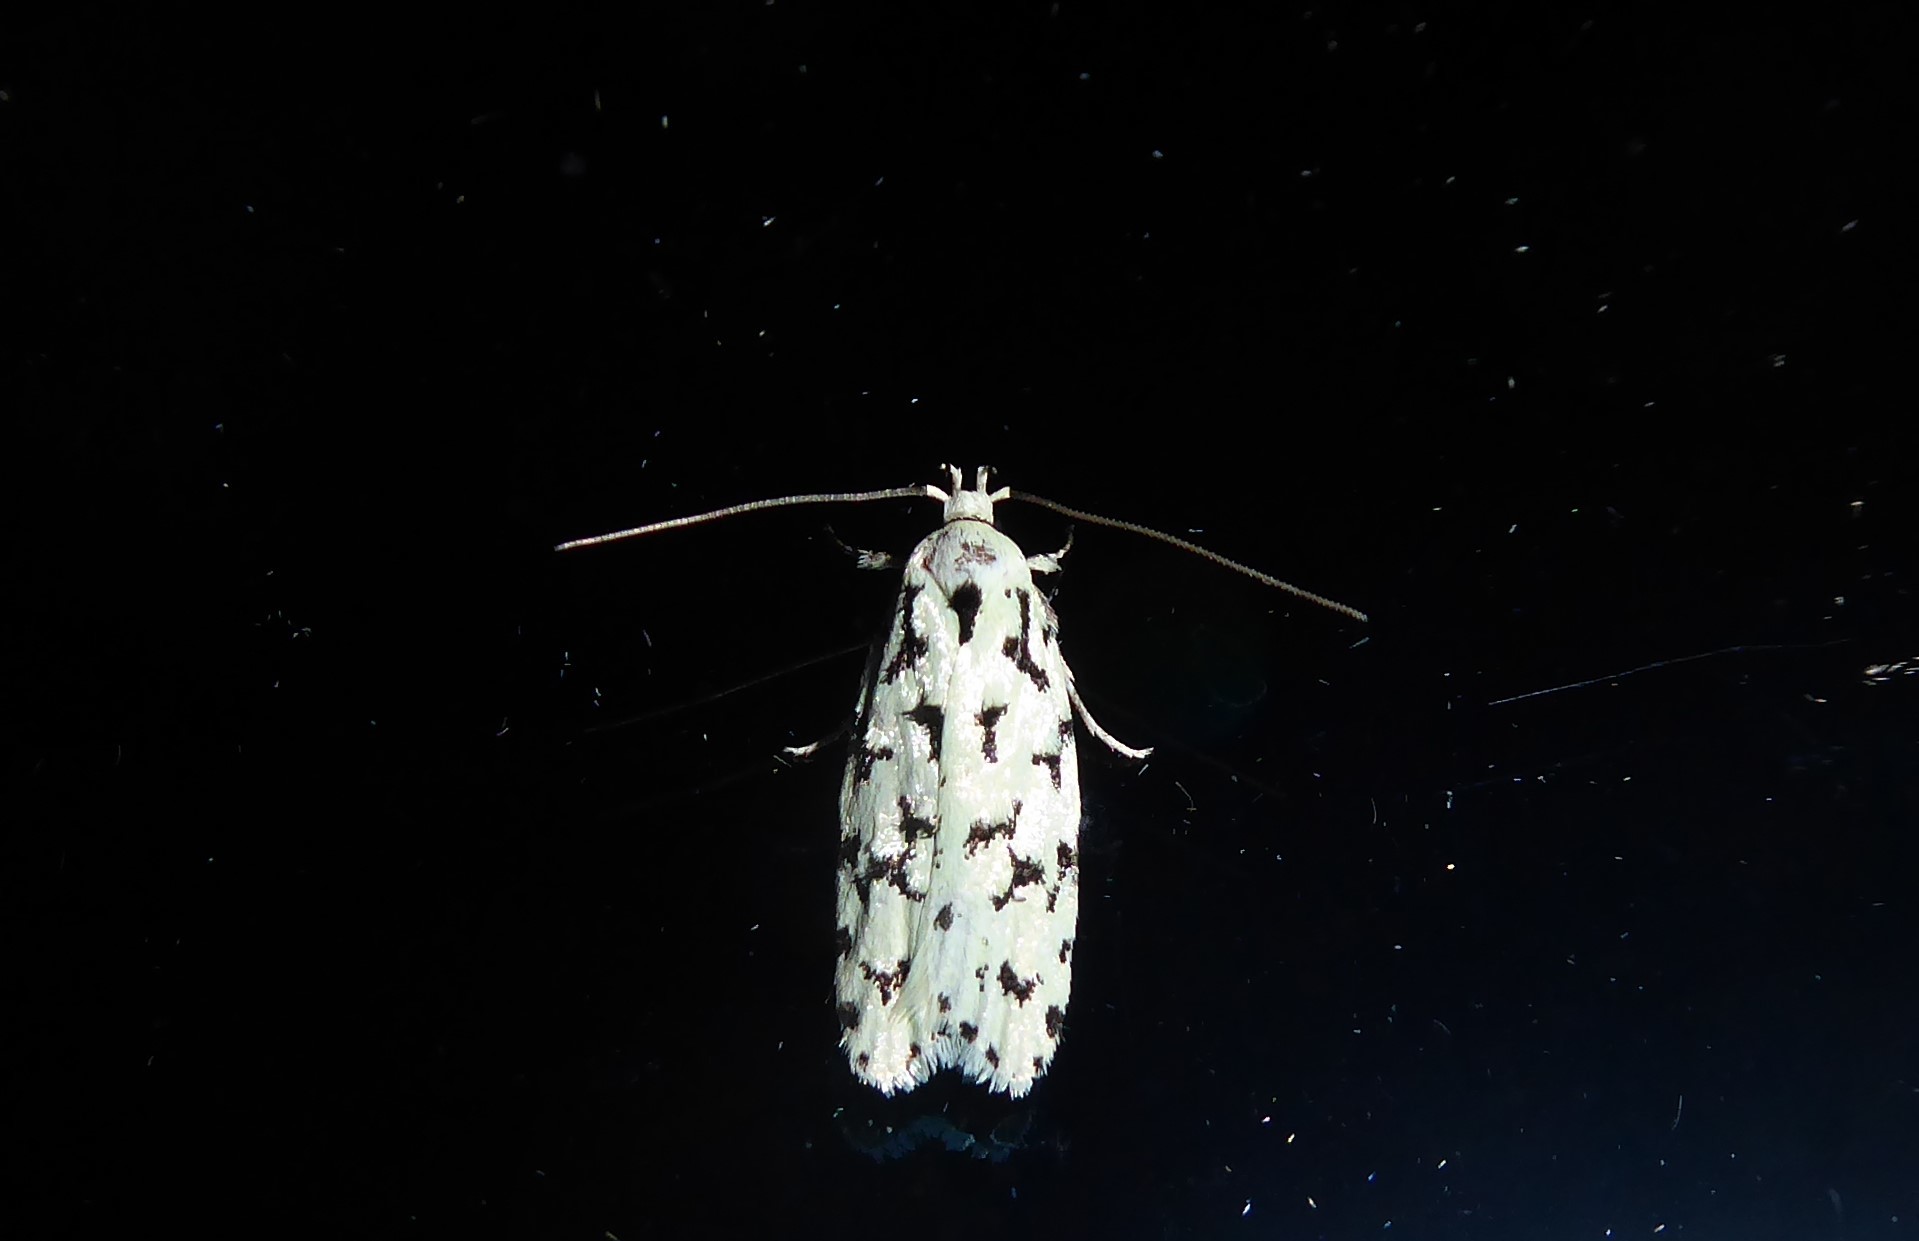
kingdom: Animalia
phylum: Arthropoda
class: Insecta
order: Lepidoptera
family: Oecophoridae
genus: Izatha
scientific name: Izatha huttoni
